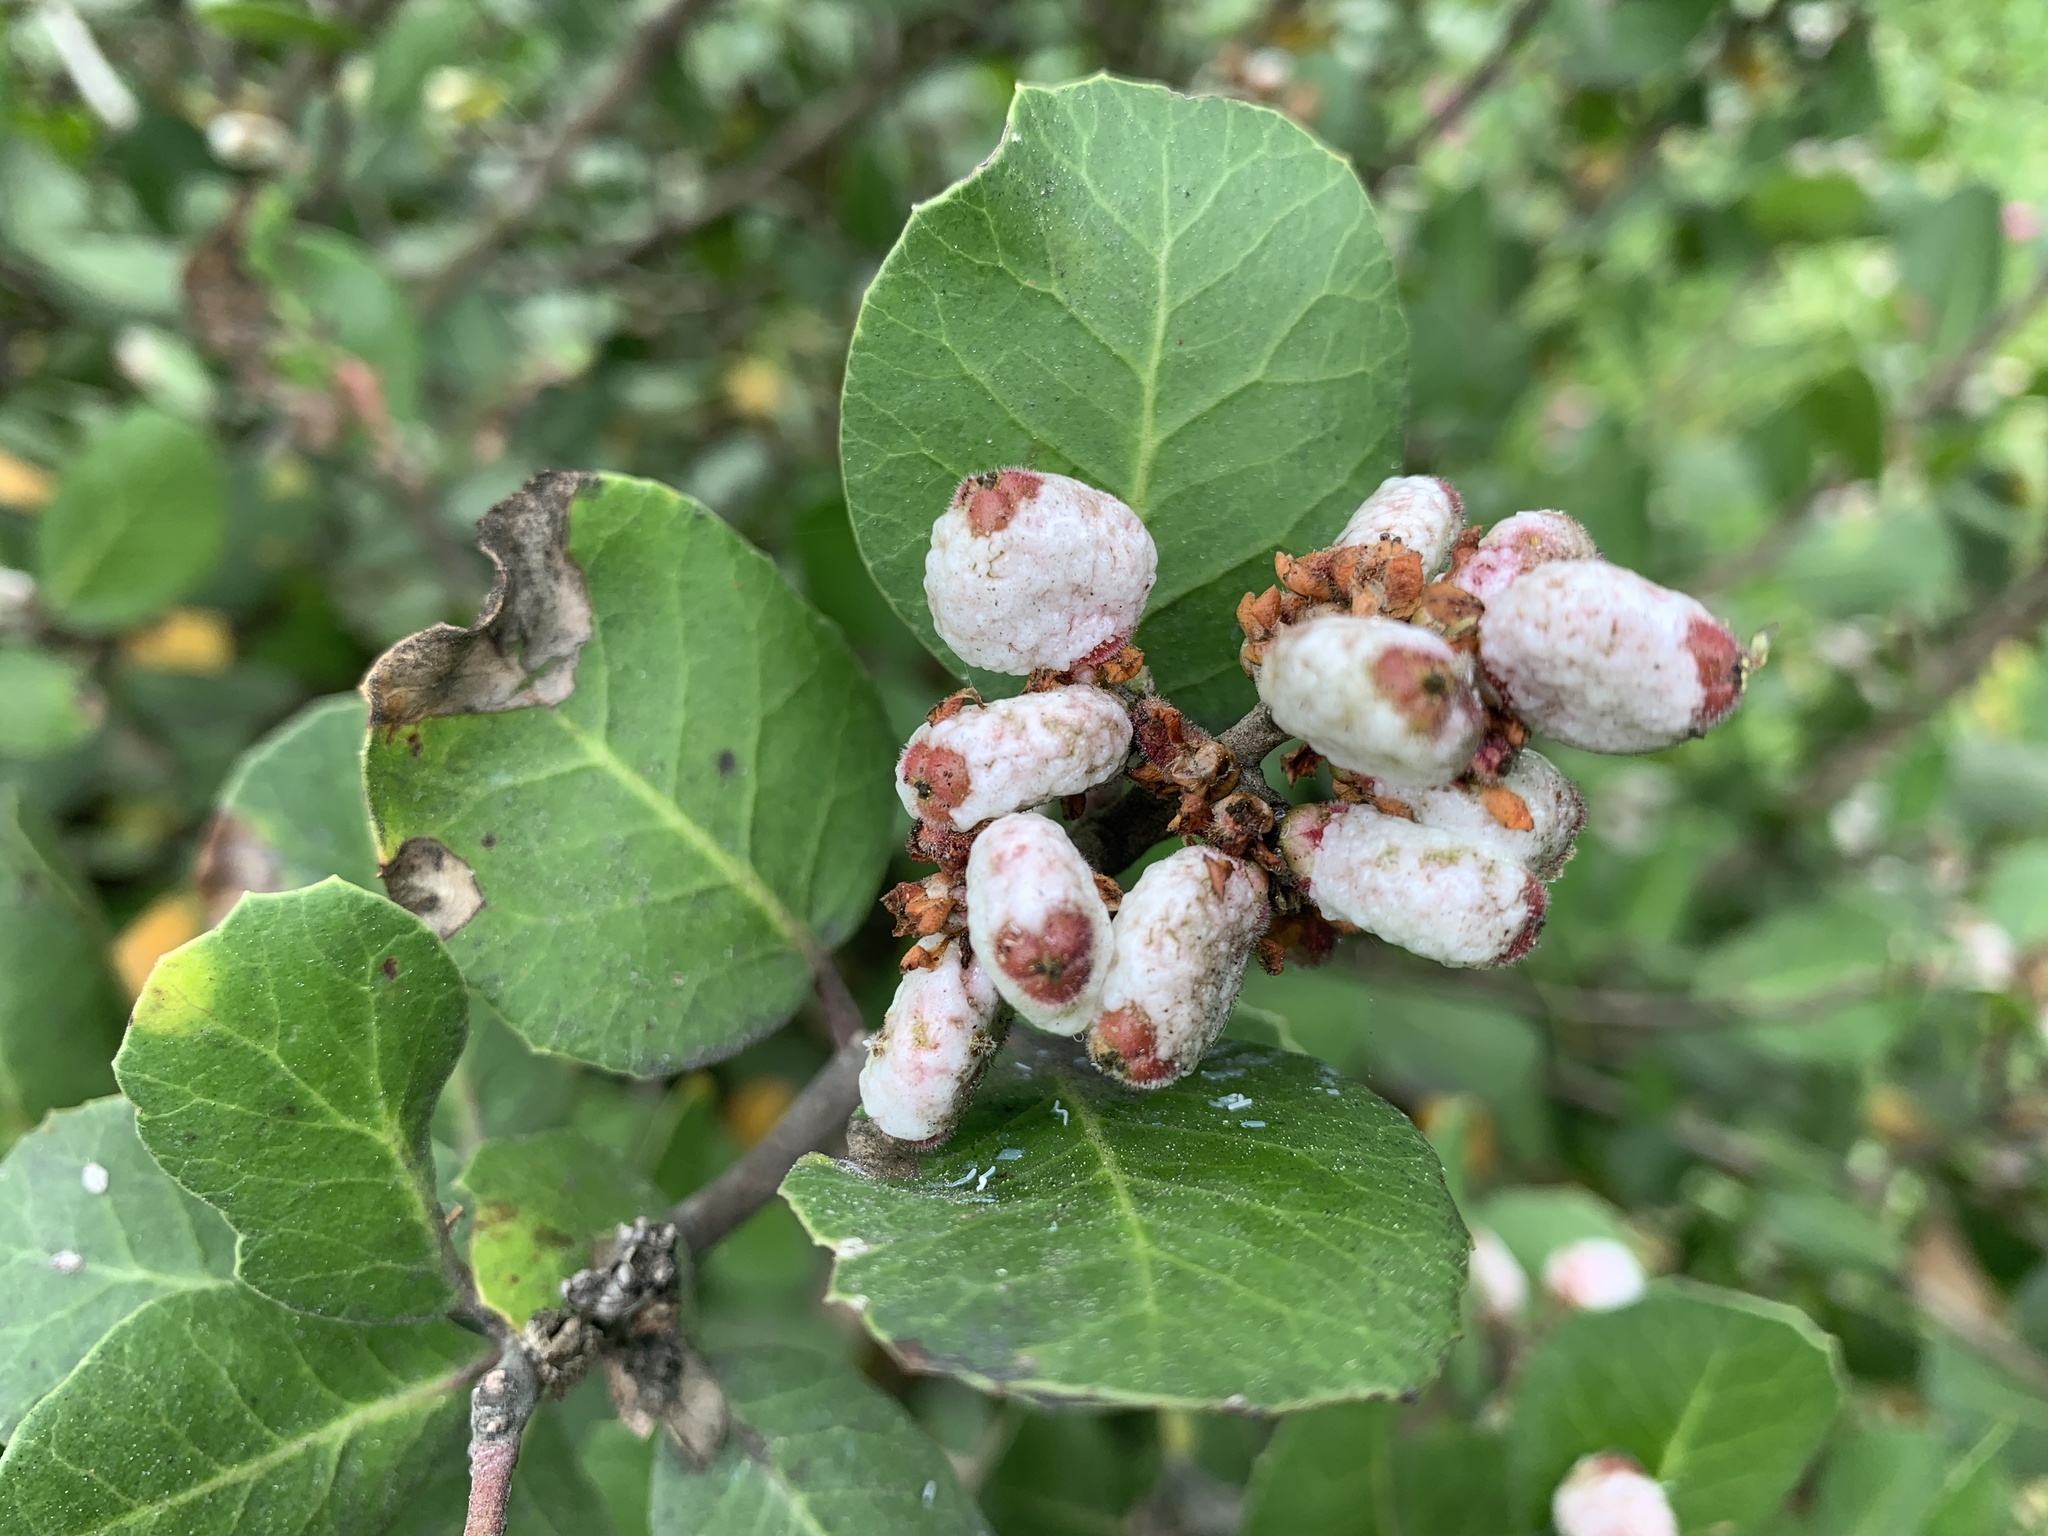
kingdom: Plantae
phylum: Tracheophyta
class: Magnoliopsida
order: Sapindales
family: Anacardiaceae
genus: Rhus
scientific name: Rhus integrifolia
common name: Lemonade sumac
